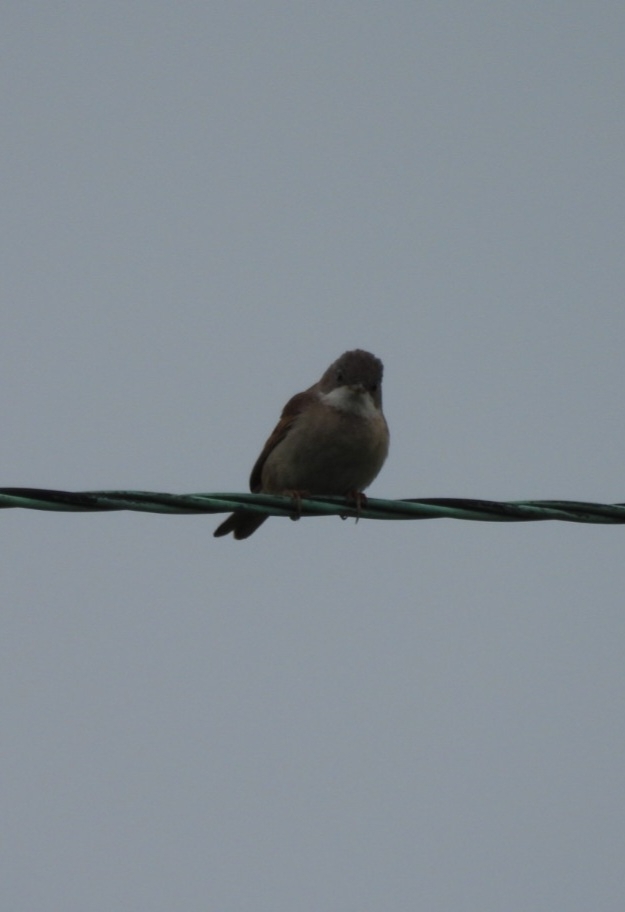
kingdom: Animalia
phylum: Chordata
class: Aves
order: Passeriformes
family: Sylviidae
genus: Sylvia
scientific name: Sylvia communis
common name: Common whitethroat
